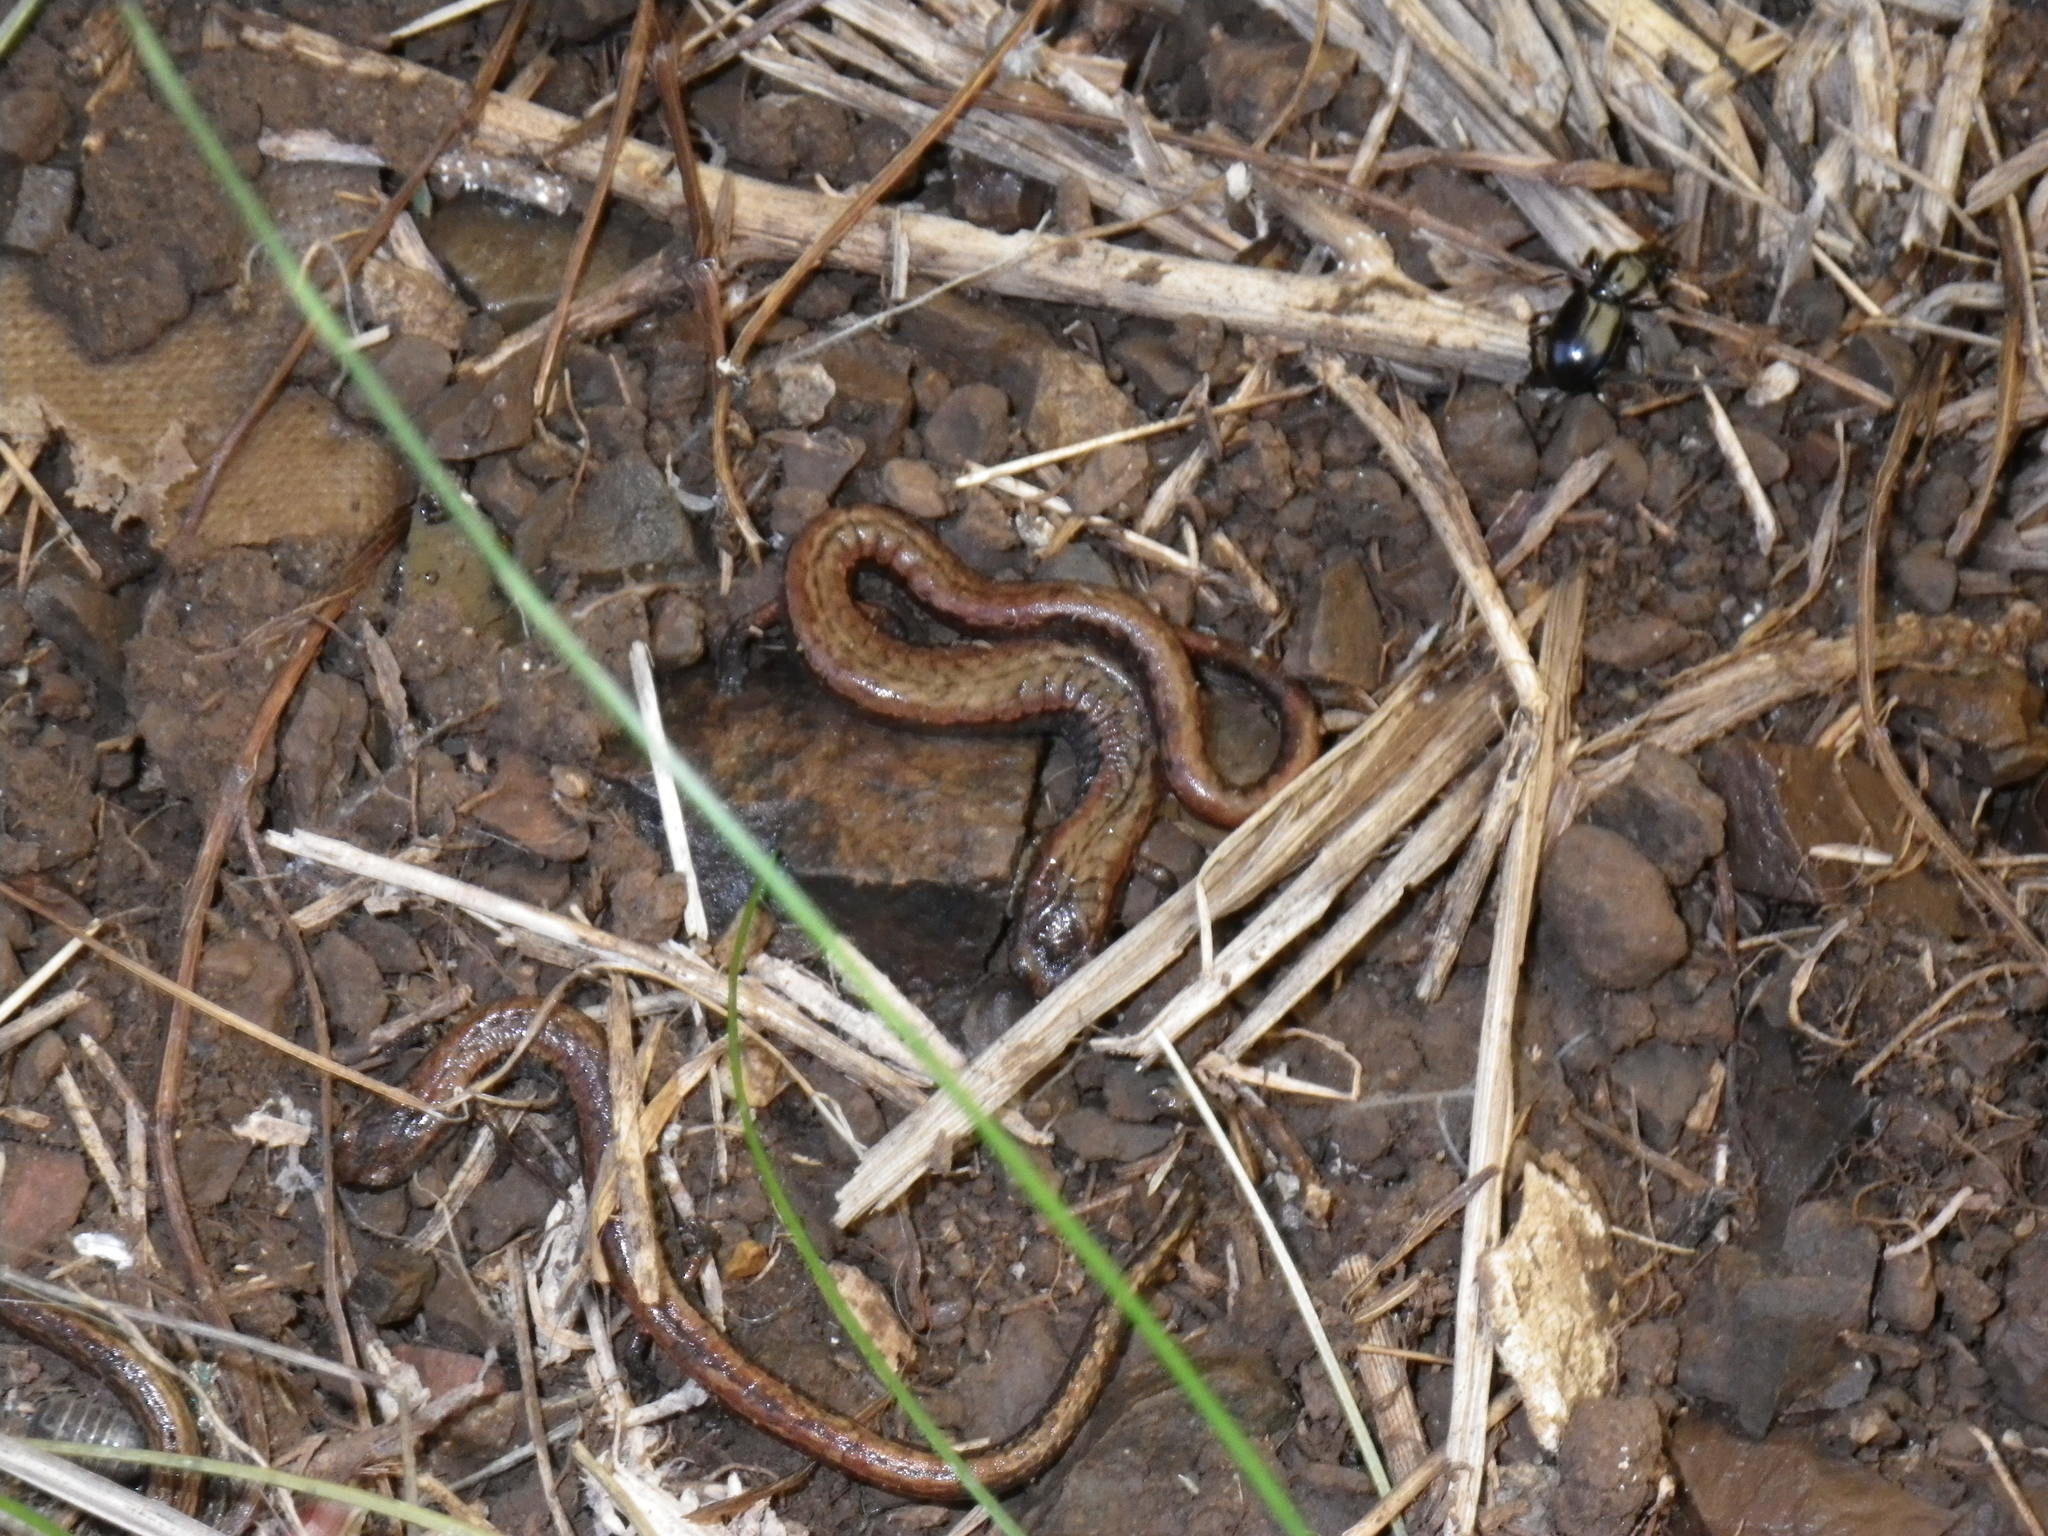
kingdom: Animalia
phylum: Chordata
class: Amphibia
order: Caudata
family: Plethodontidae
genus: Batrachoseps
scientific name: Batrachoseps attenuatus
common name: California slender salamander
